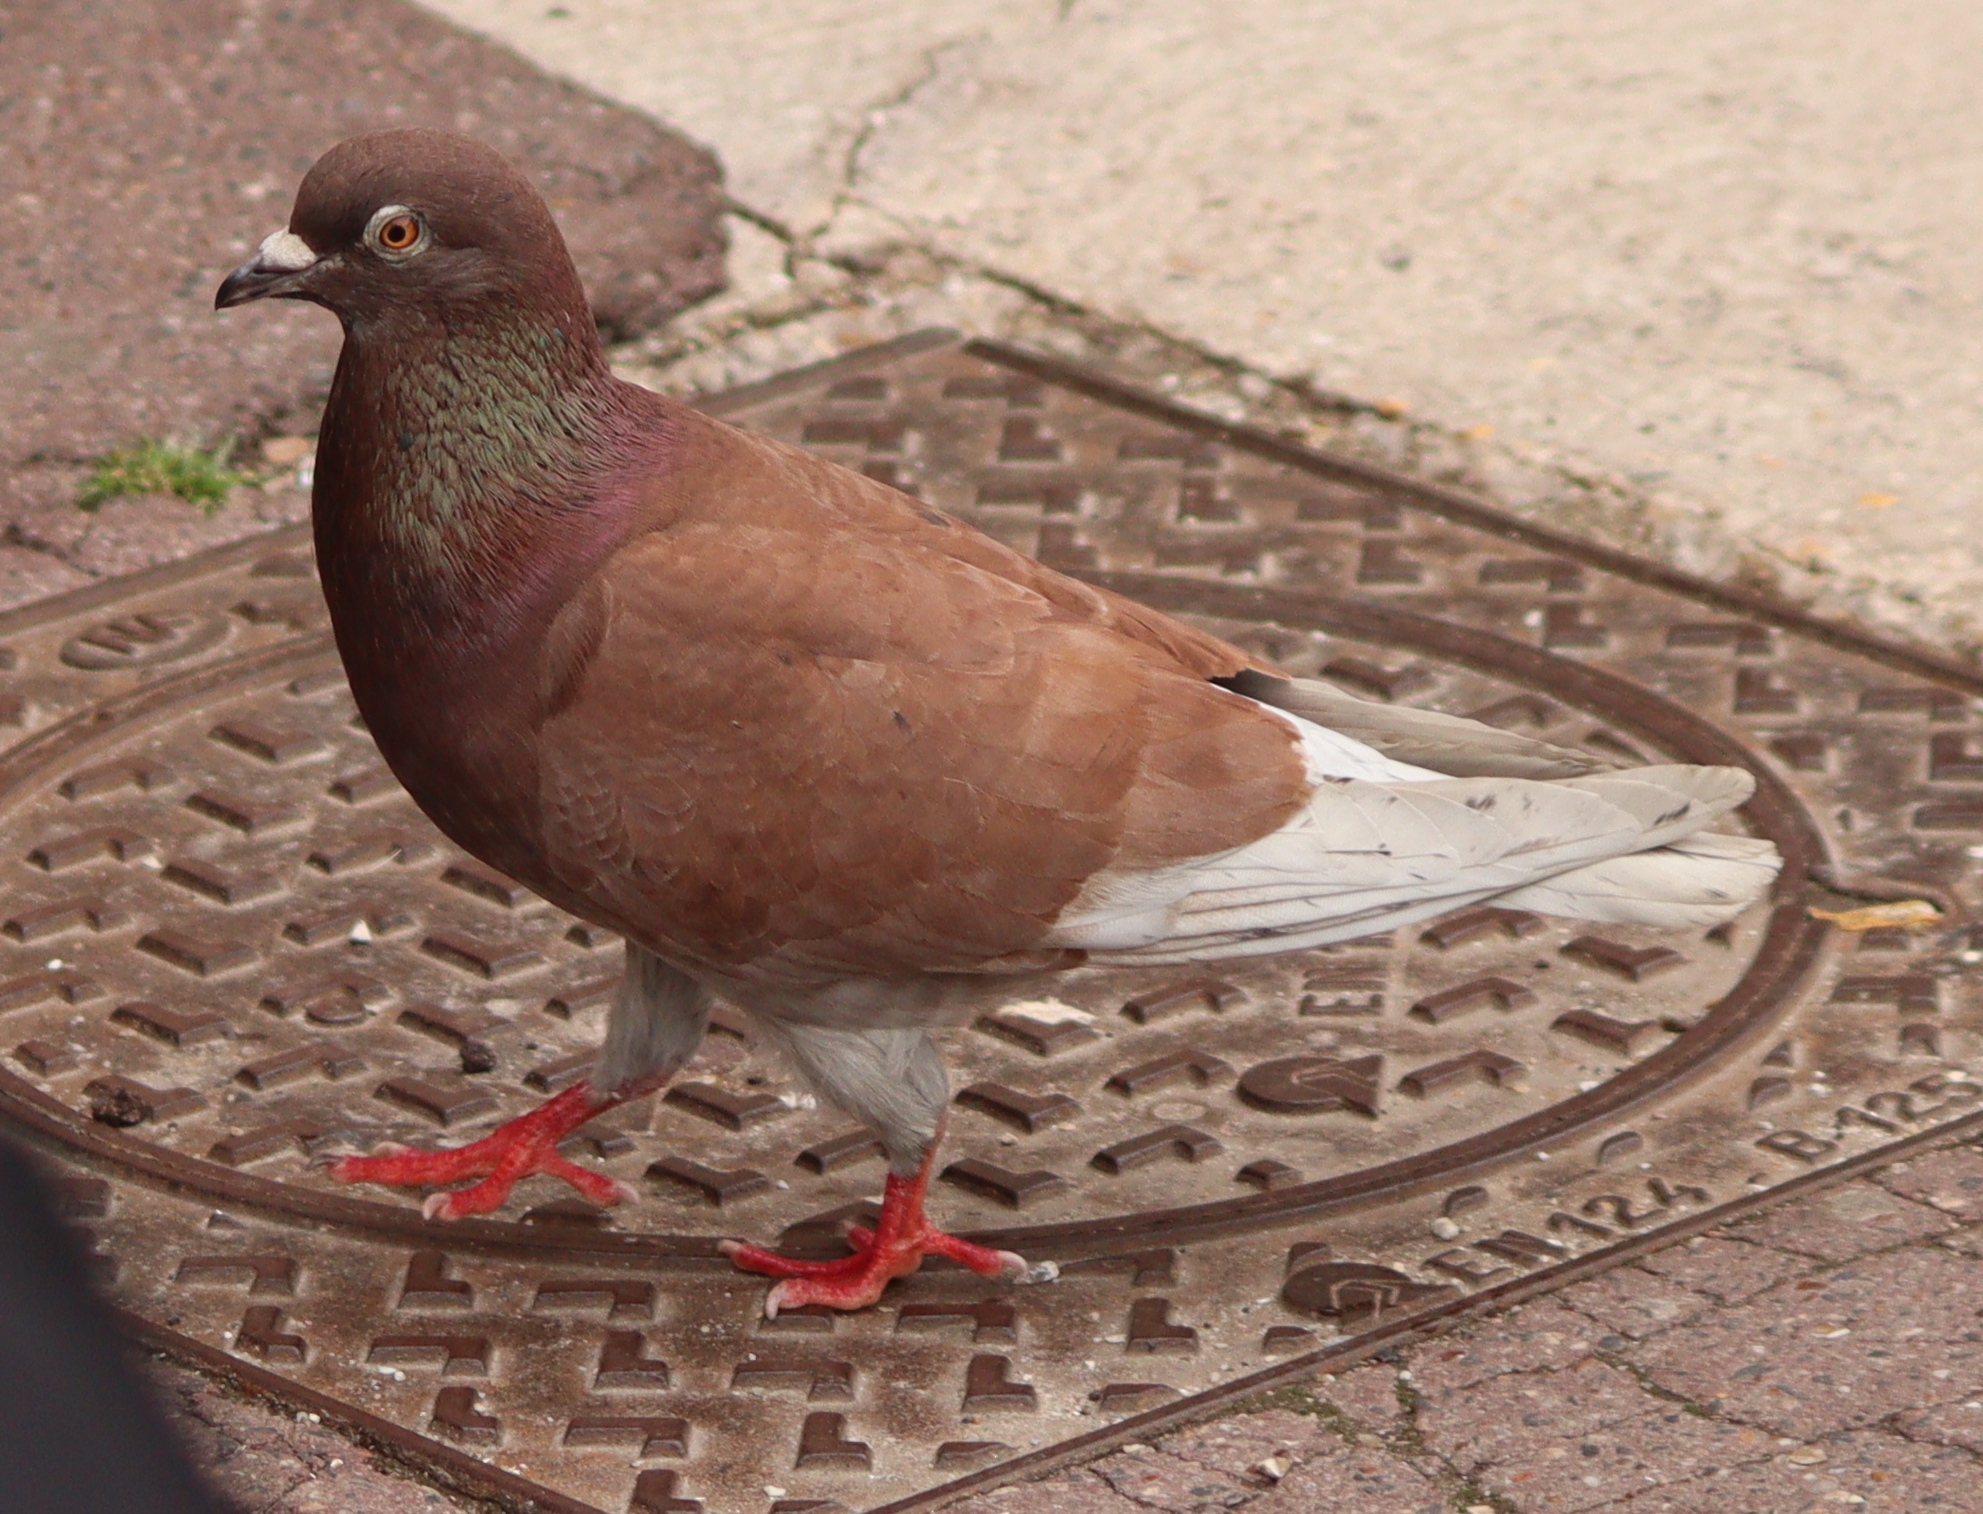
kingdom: Animalia
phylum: Chordata
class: Aves
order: Columbiformes
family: Columbidae
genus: Columba
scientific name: Columba livia
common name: Rock pigeon
